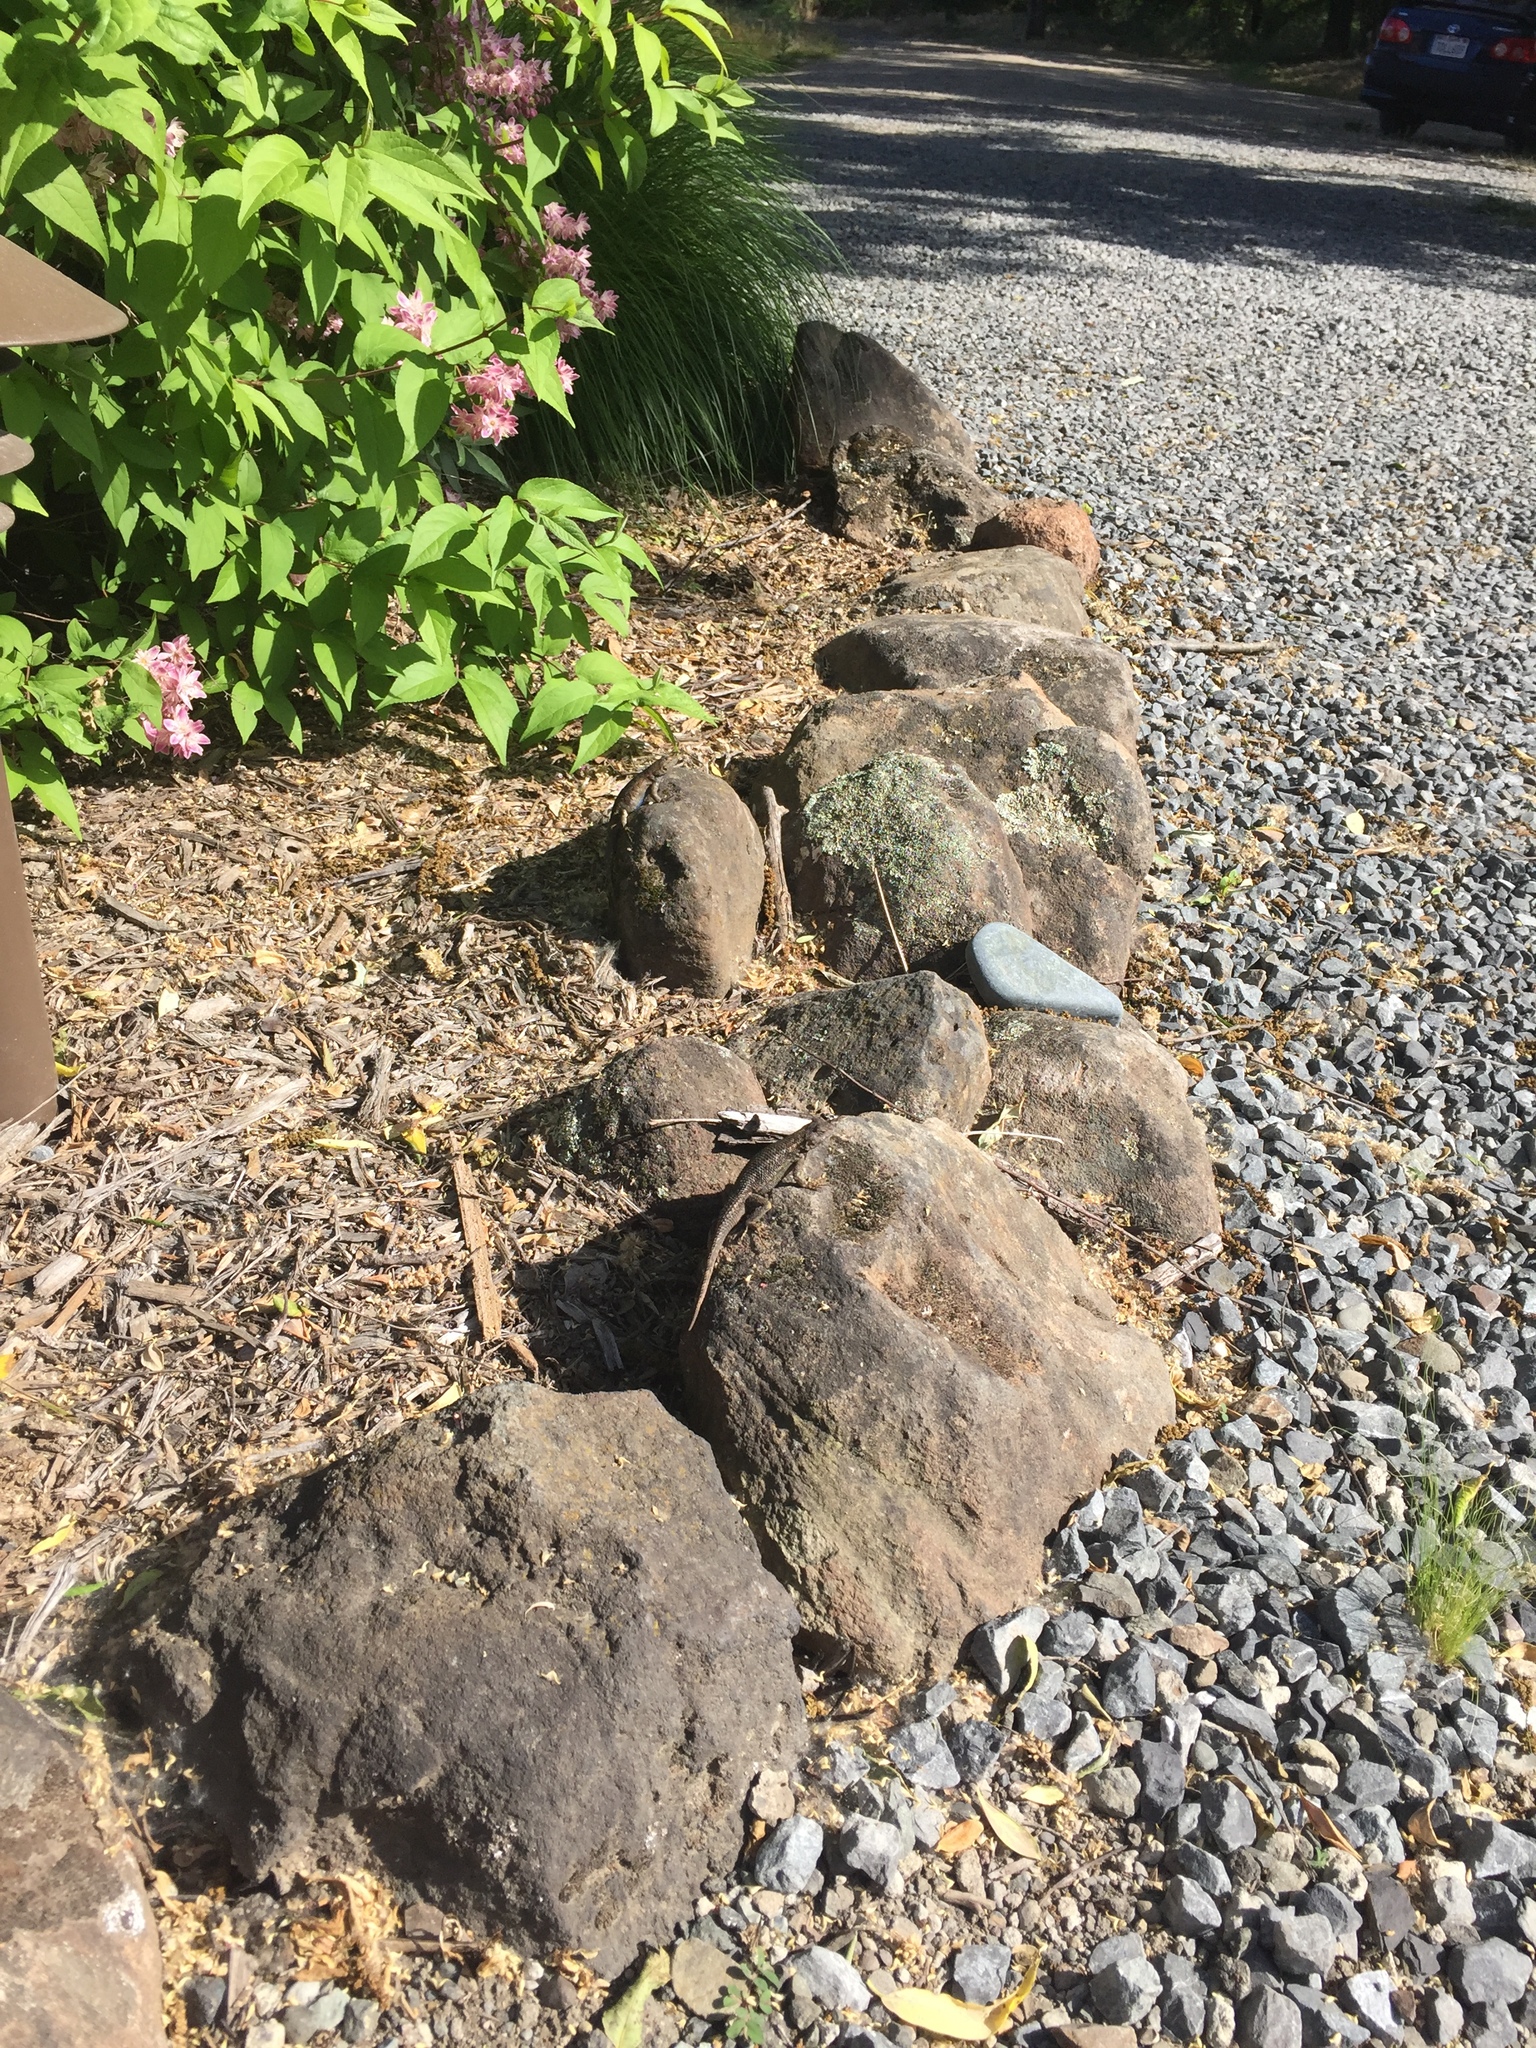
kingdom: Animalia
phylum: Chordata
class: Squamata
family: Phrynosomatidae
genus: Sceloporus
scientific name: Sceloporus occidentalis
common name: Western fence lizard
